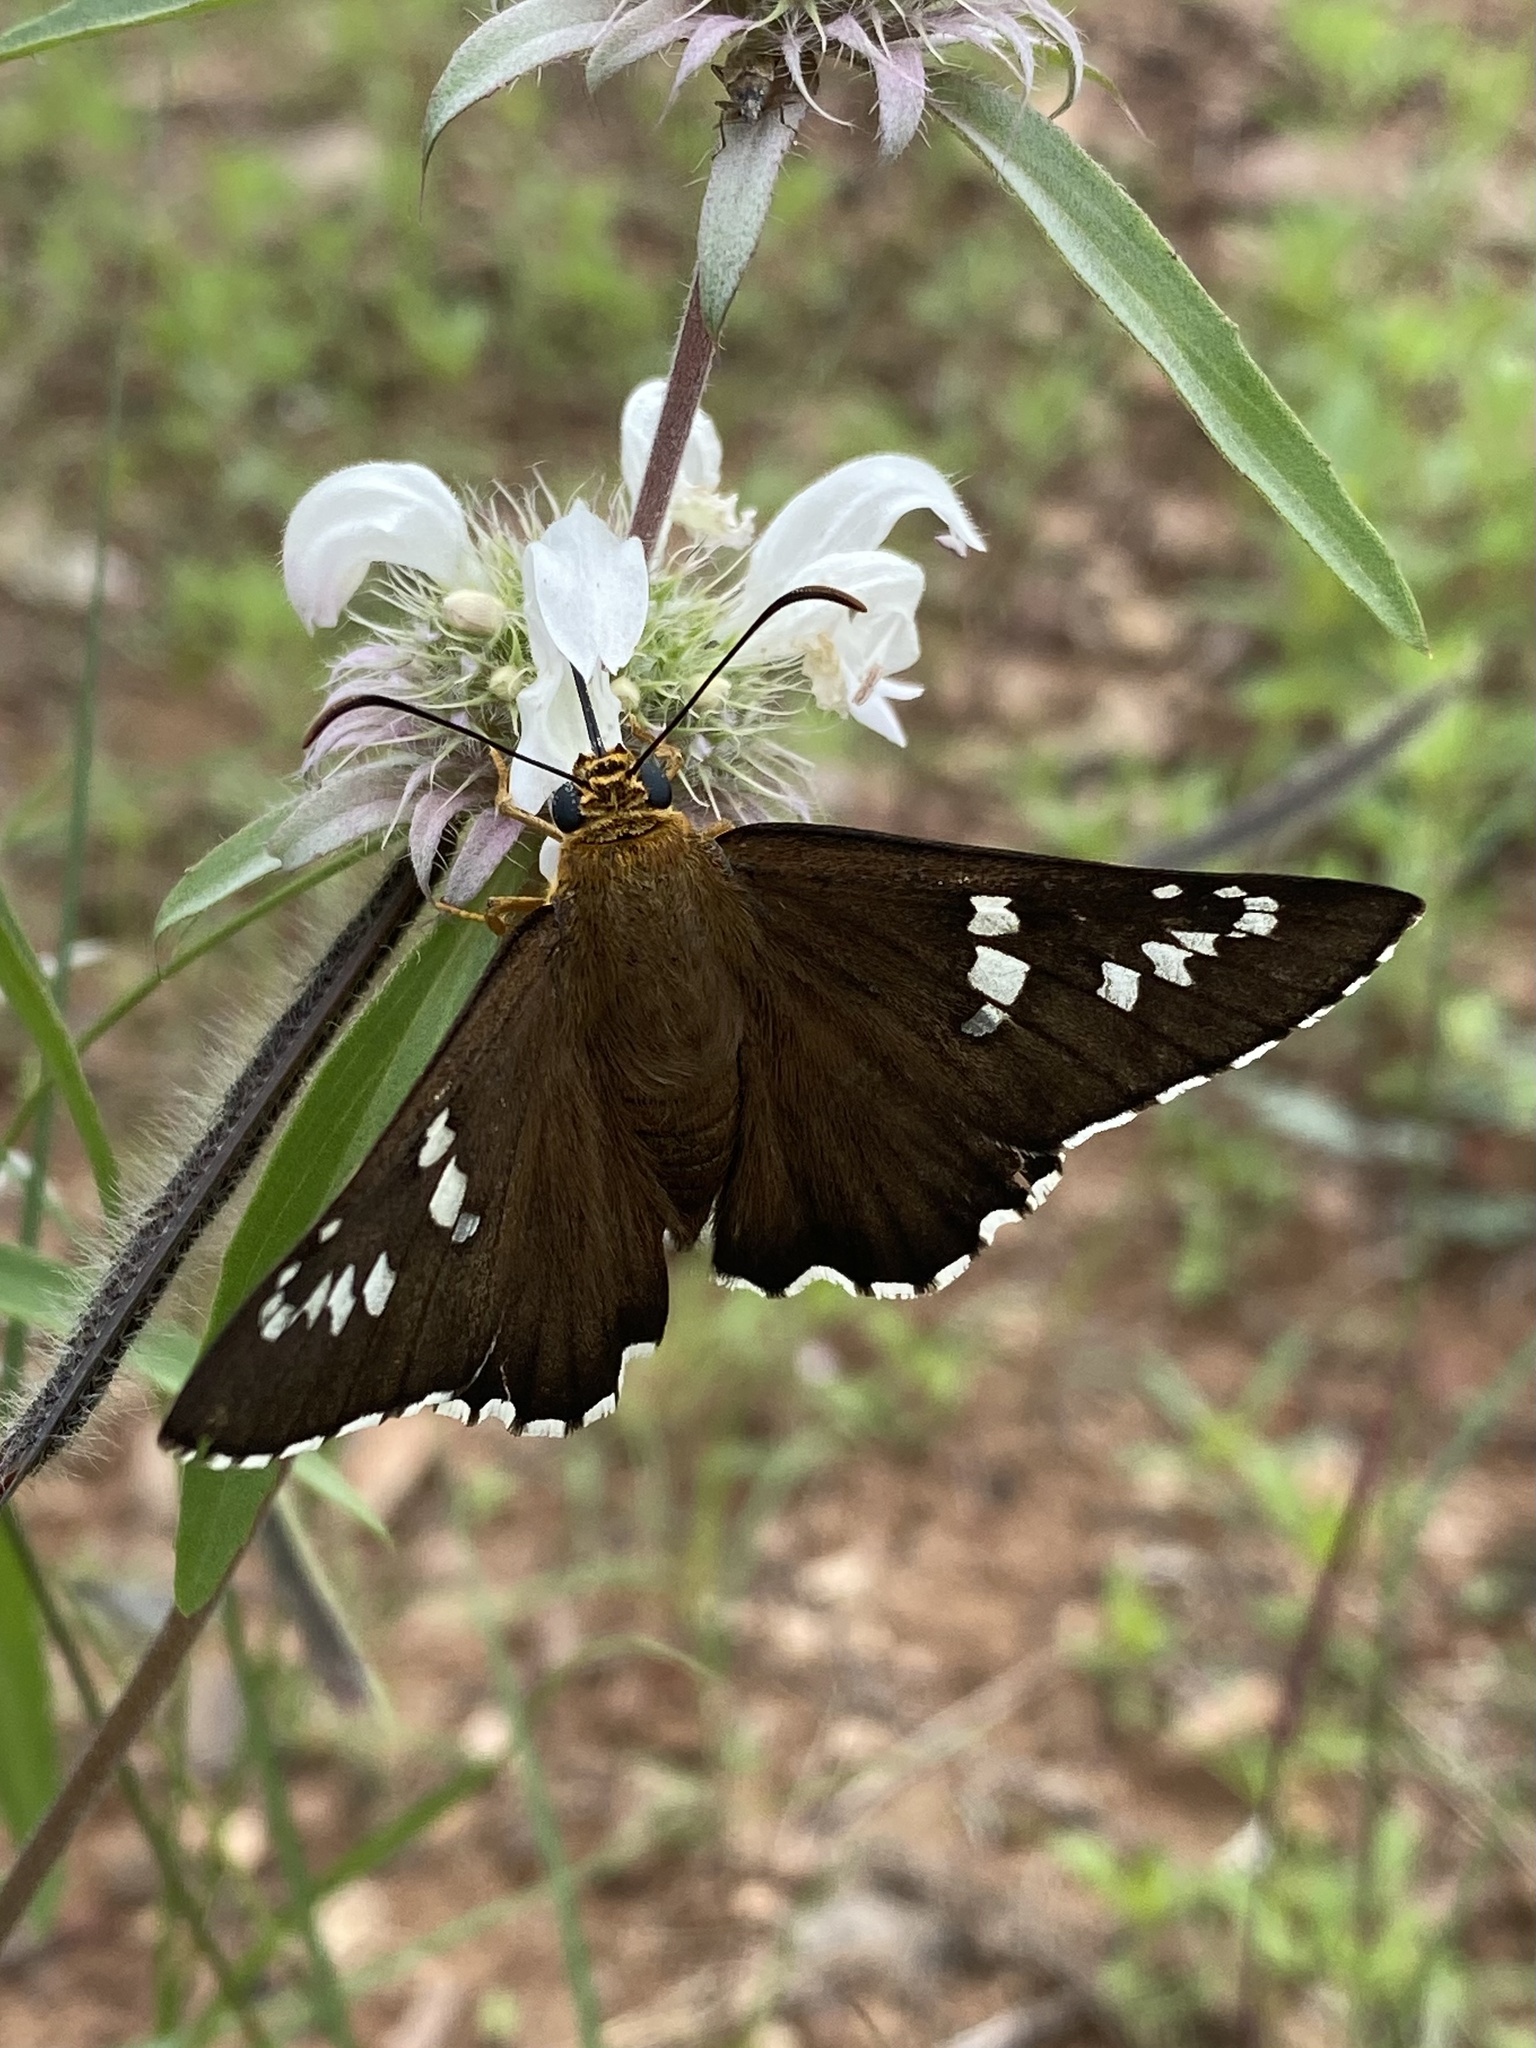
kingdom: Animalia
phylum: Arthropoda
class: Insecta
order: Lepidoptera
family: Hesperiidae
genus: Pyrrhopyge
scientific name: Pyrrhopyge araxes
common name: Dull firetip
